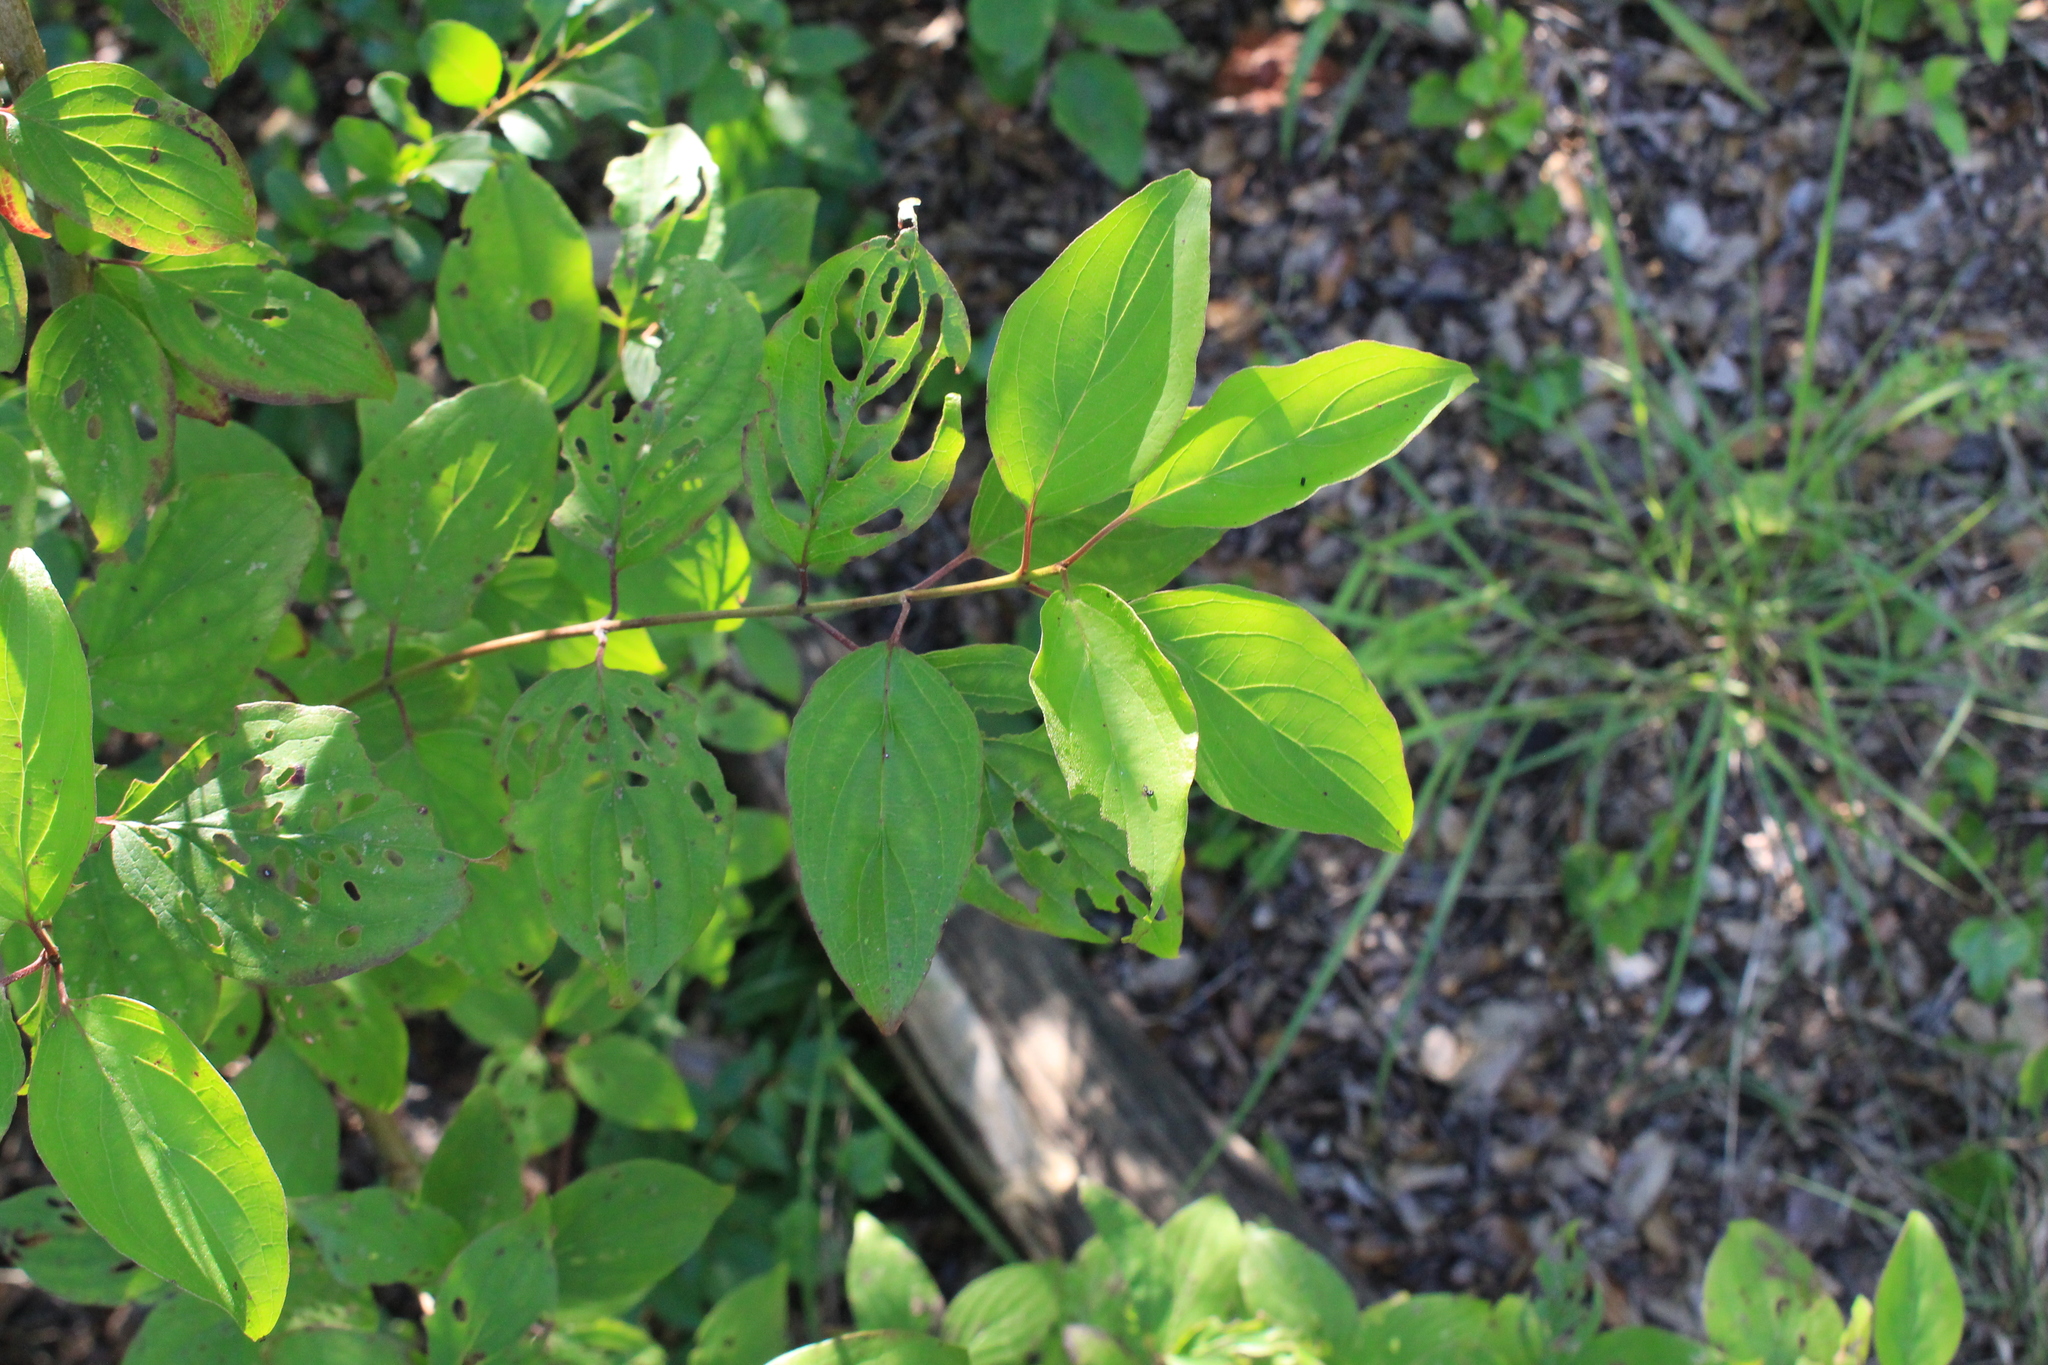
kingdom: Plantae
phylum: Tracheophyta
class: Magnoliopsida
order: Cornales
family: Cornaceae
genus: Cornus
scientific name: Cornus drummondii
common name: Rough-leaf dogwood
